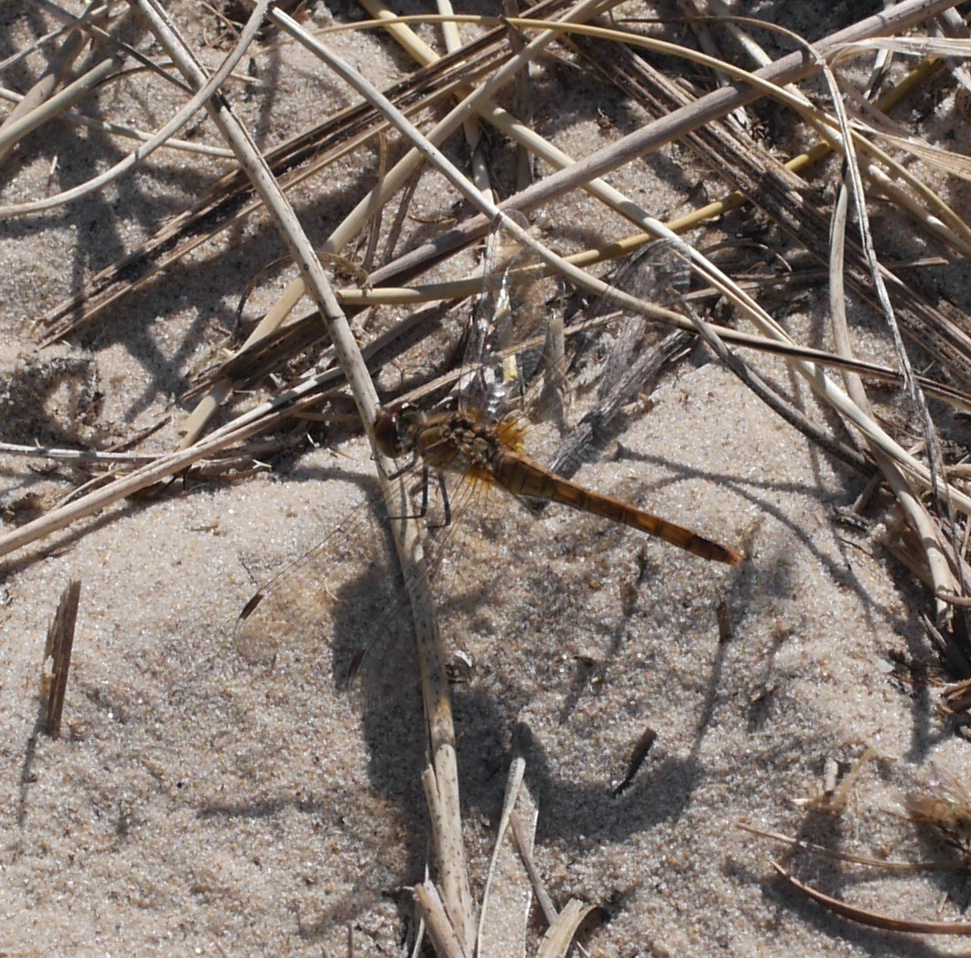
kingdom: Animalia
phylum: Arthropoda
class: Insecta
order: Odonata
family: Libellulidae
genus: Sympetrum
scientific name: Sympetrum sanguineum
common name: Ruddy darter
